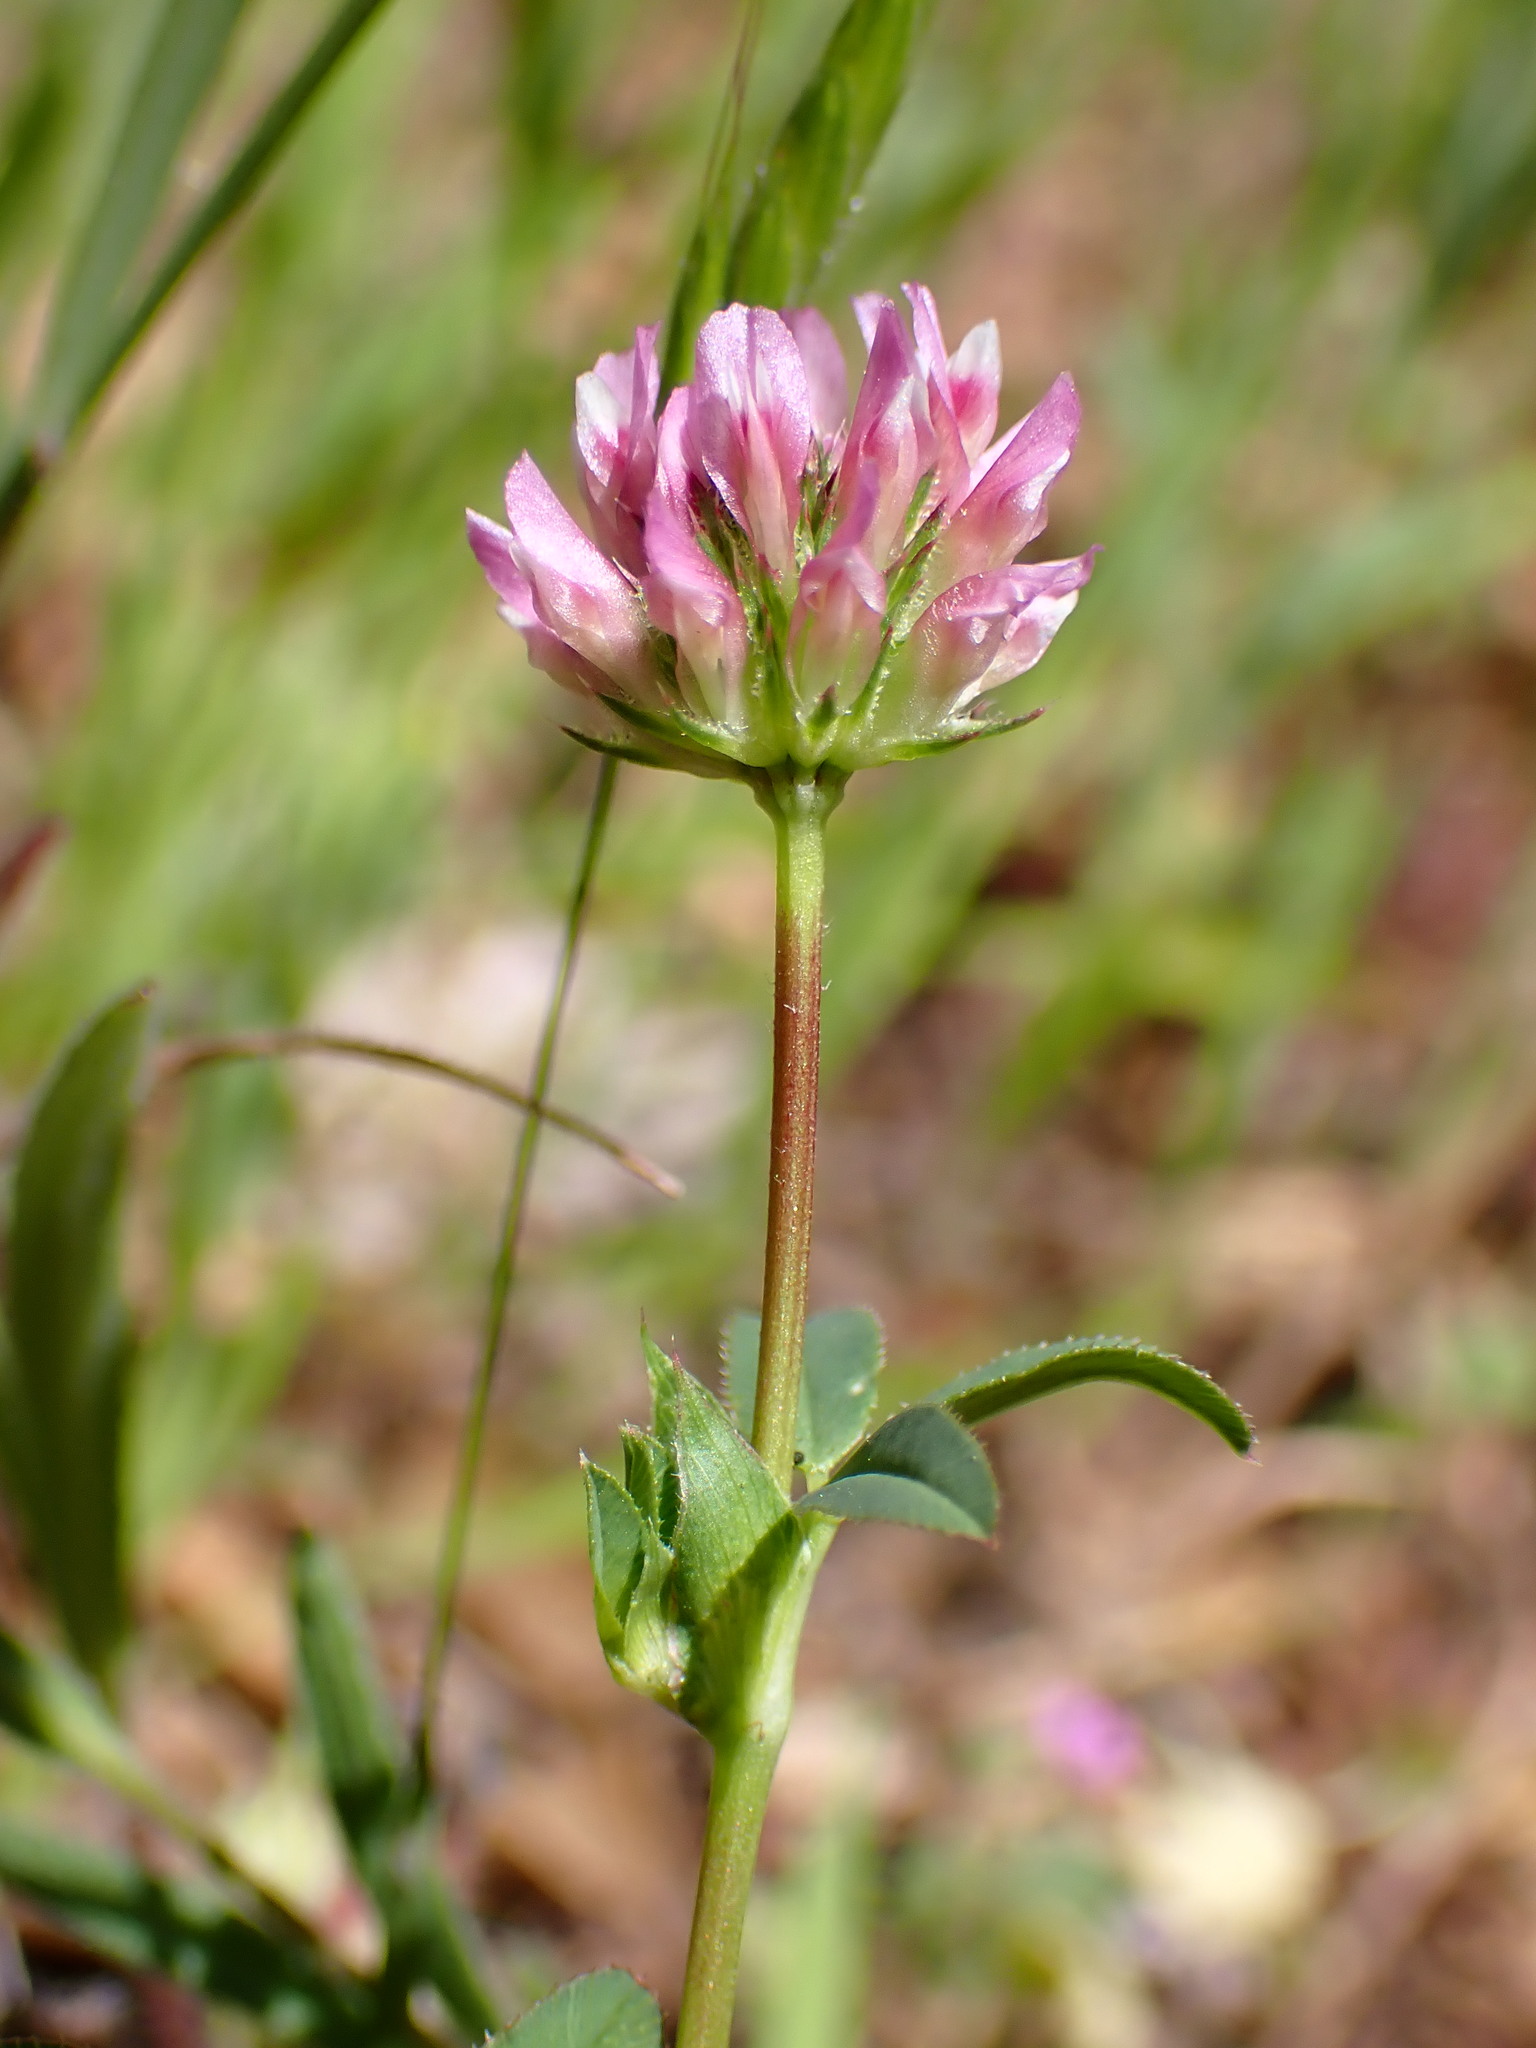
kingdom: Plantae
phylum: Tracheophyta
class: Magnoliopsida
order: Fabales
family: Fabaceae
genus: Trifolium
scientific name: Trifolium ciliolatum
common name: Foothill clover
